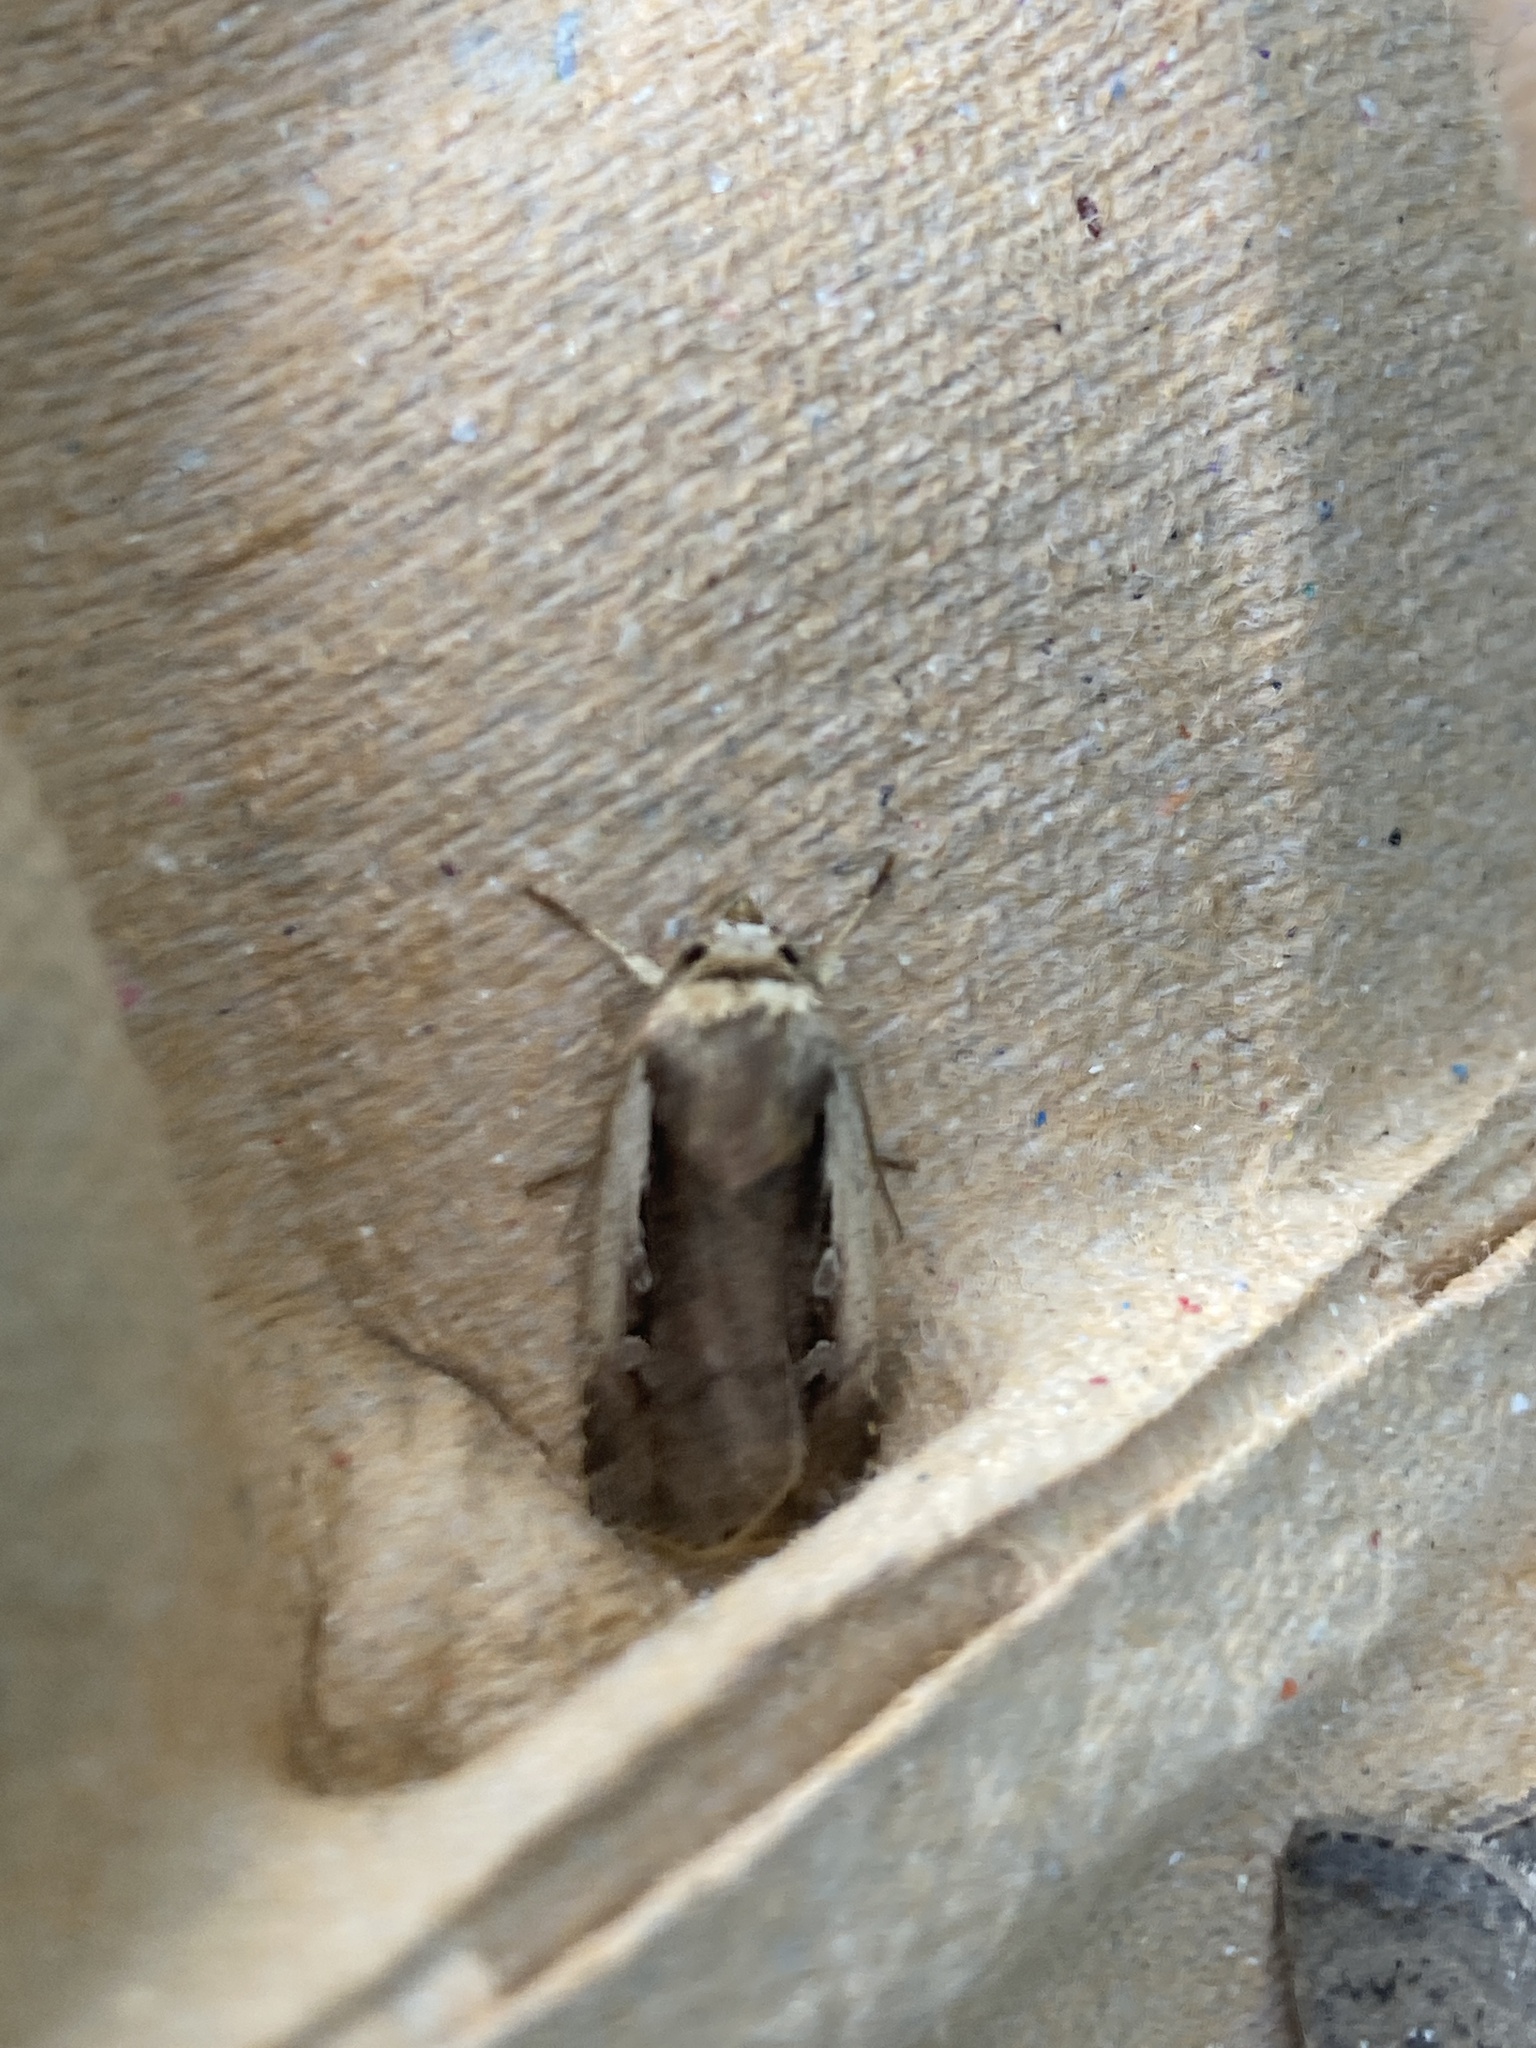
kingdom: Animalia
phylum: Arthropoda
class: Insecta
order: Lepidoptera
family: Noctuidae
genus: Ochropleura
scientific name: Ochropleura plecta
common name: Flame shoulder
